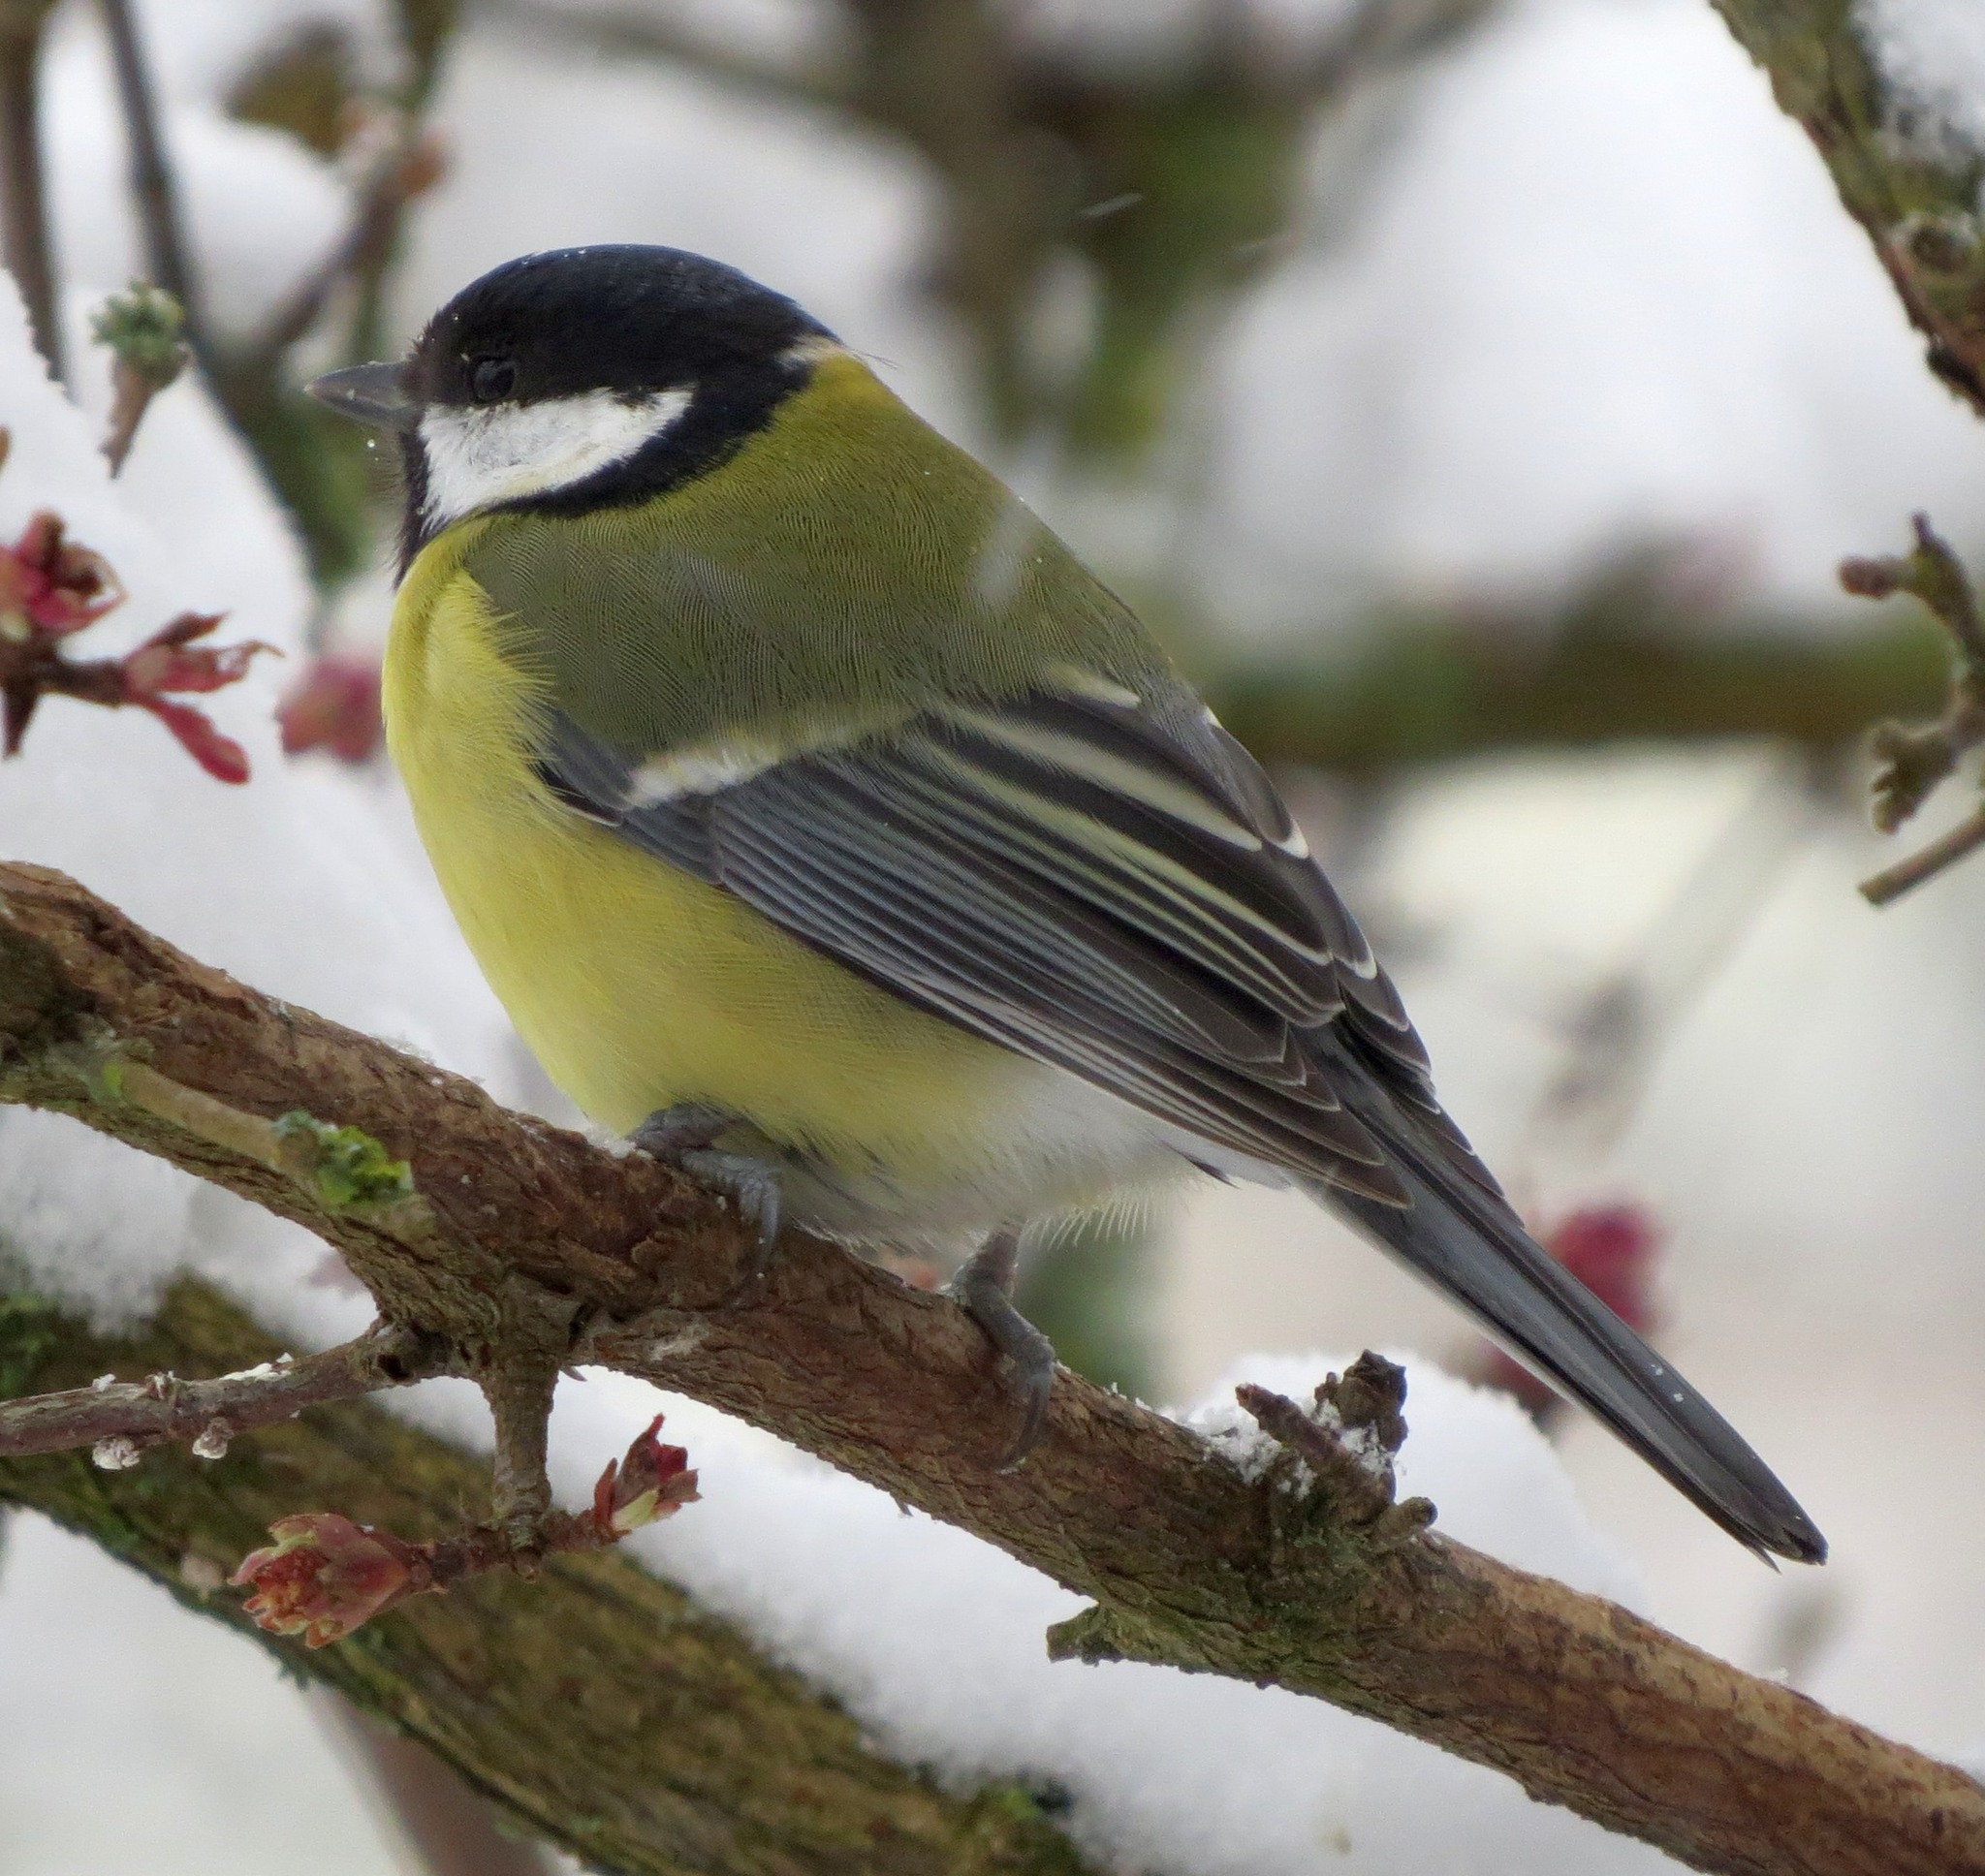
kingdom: Animalia
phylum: Chordata
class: Aves
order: Passeriformes
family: Paridae
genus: Parus
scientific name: Parus major
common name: Great tit
